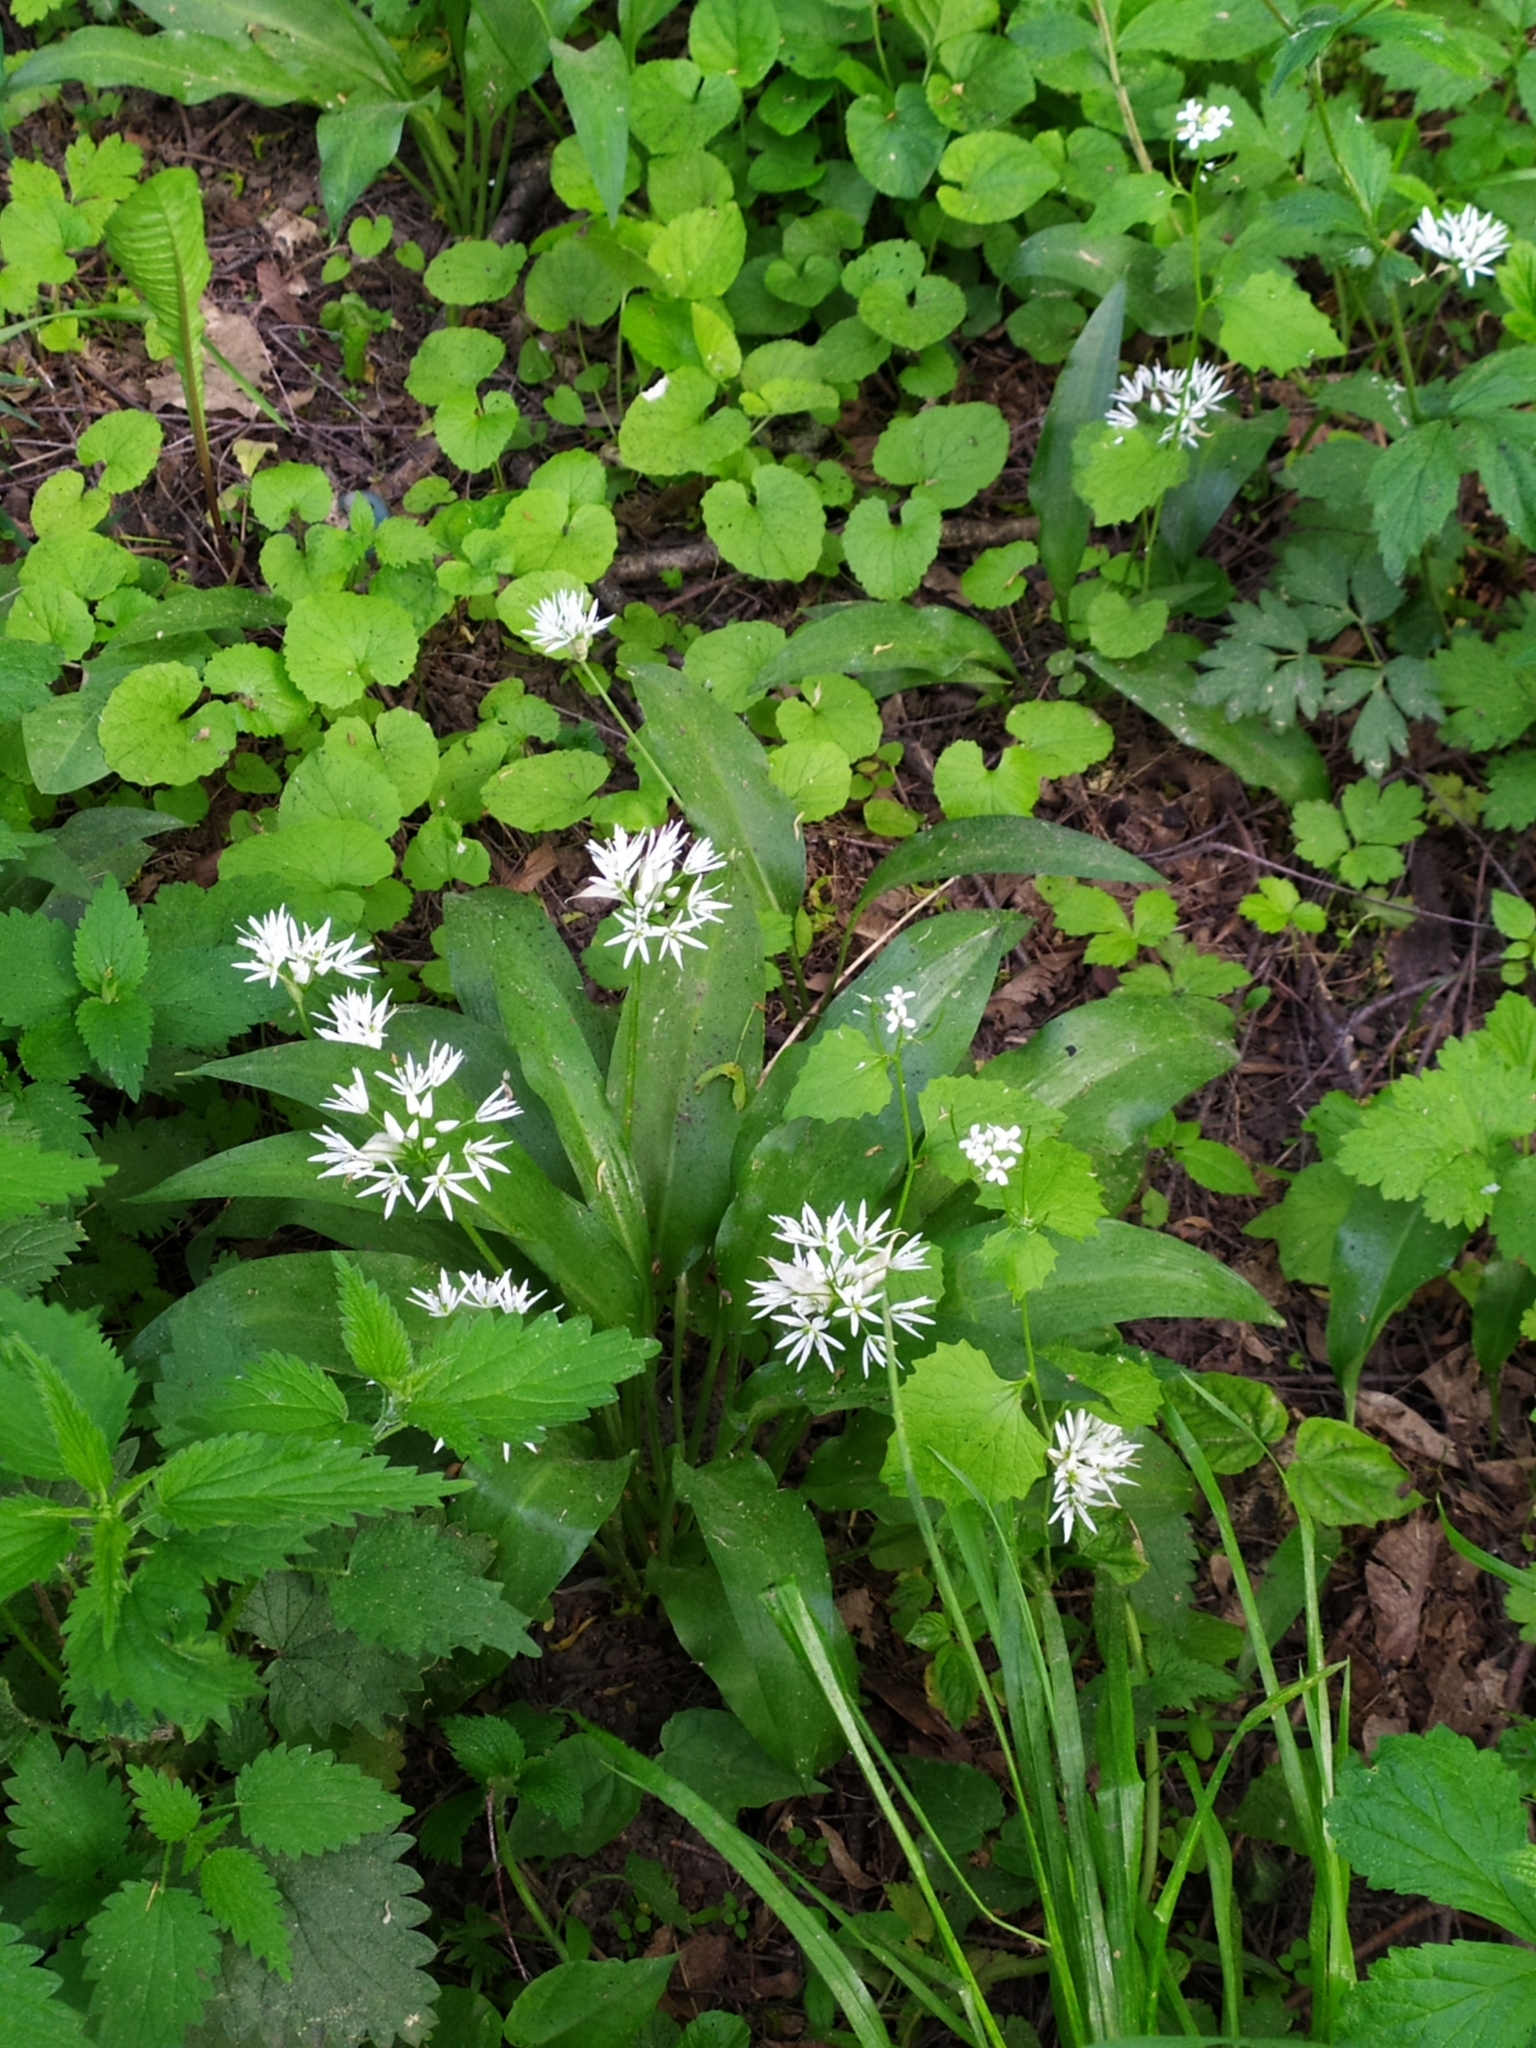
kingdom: Plantae
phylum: Tracheophyta
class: Liliopsida
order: Asparagales
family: Amaryllidaceae
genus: Allium
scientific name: Allium ursinum
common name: Ramsons
